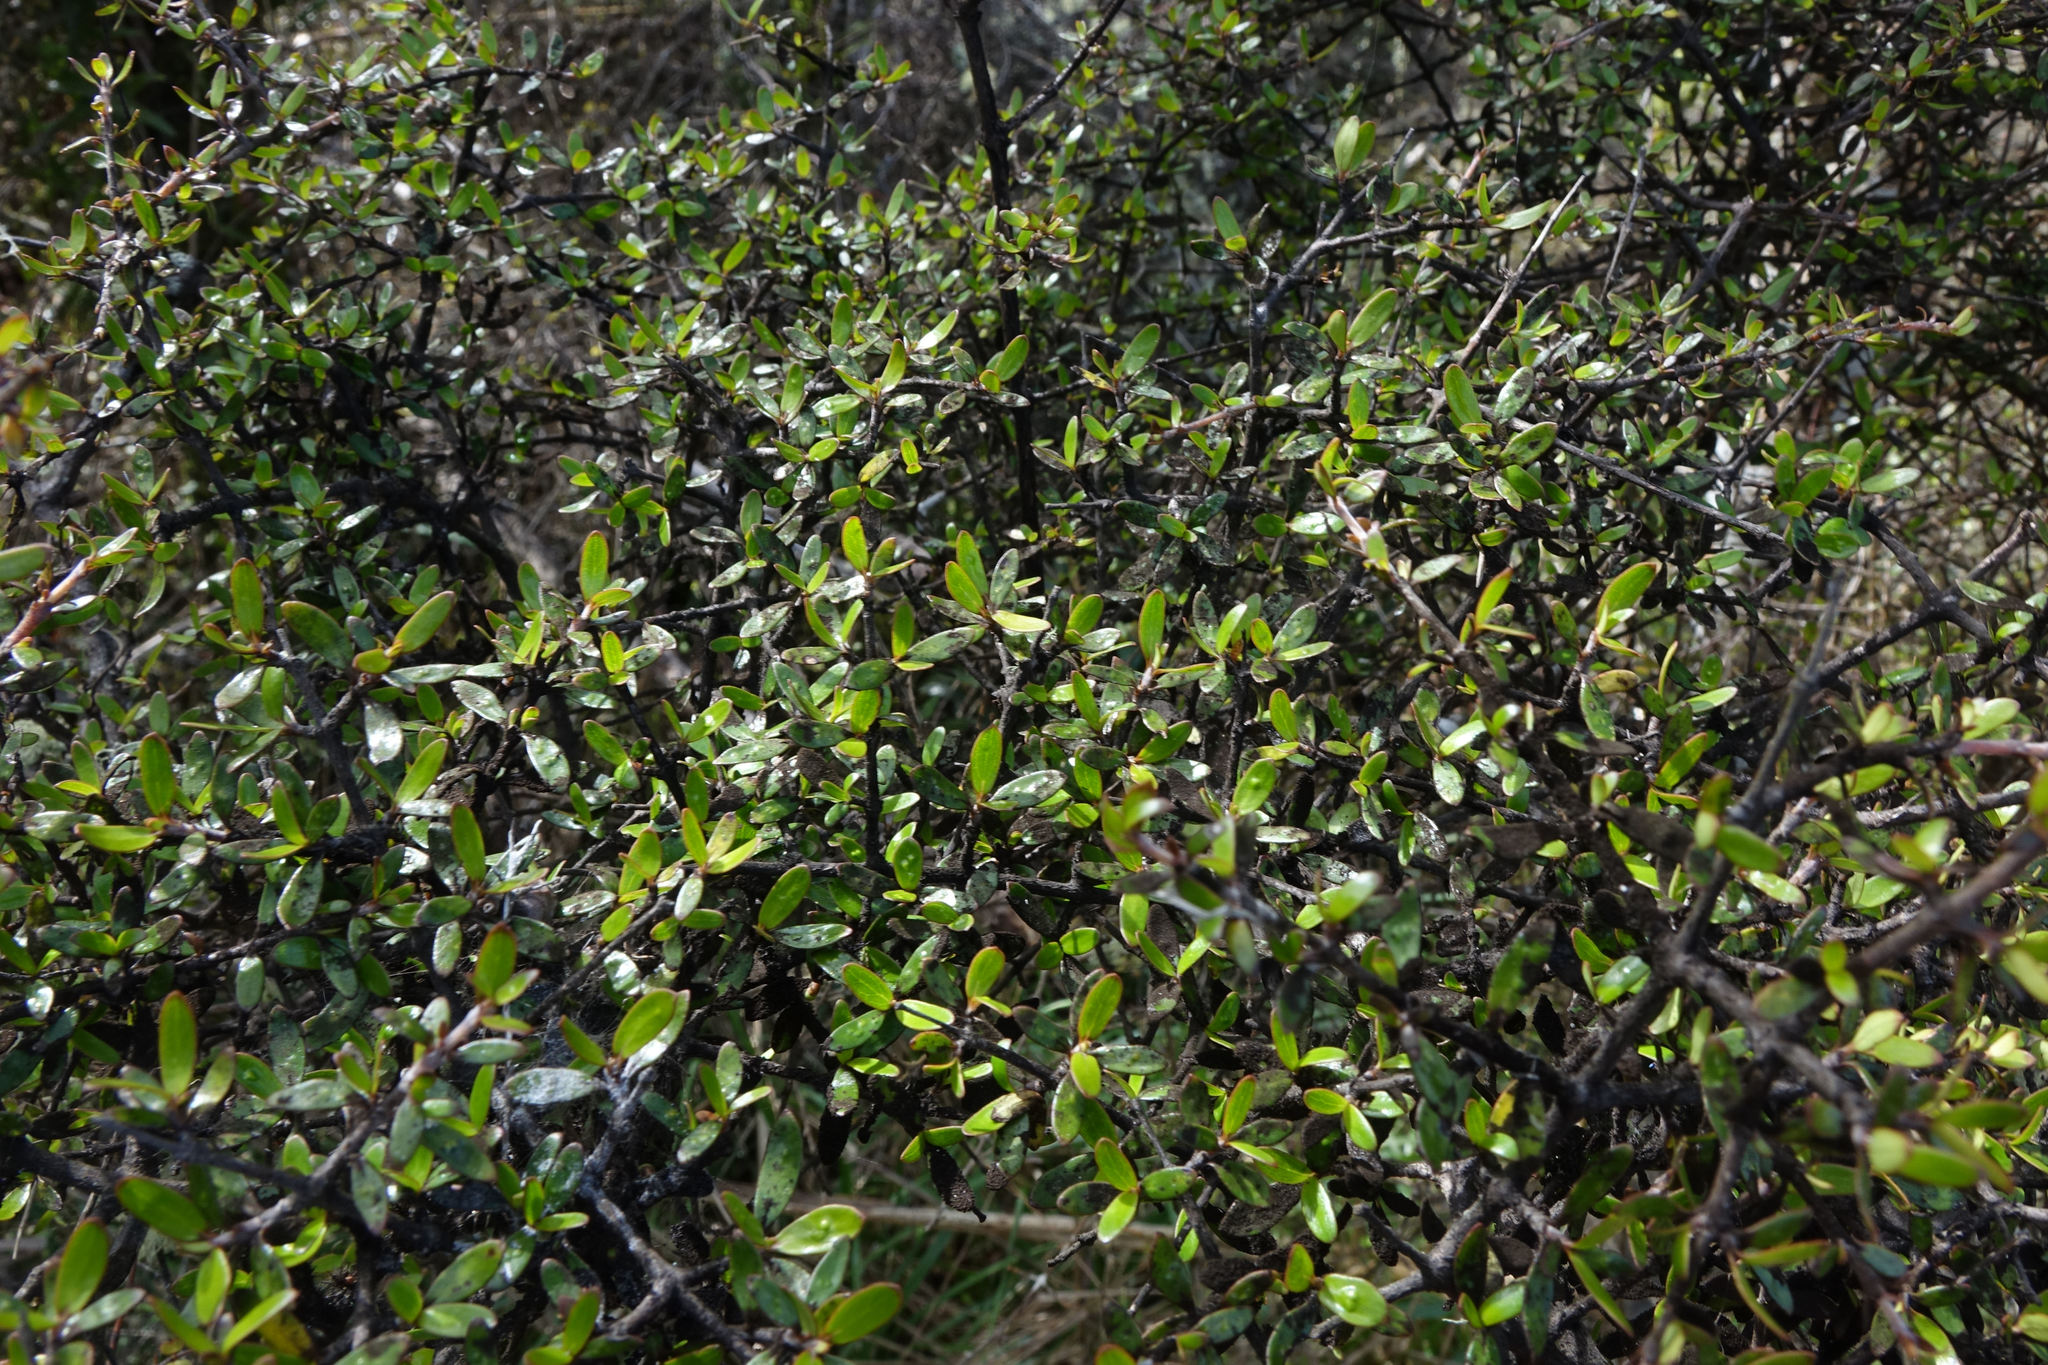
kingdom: Plantae
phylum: Tracheophyta
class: Magnoliopsida
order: Gentianales
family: Rubiaceae
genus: Coprosma
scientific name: Coprosma propinqua
